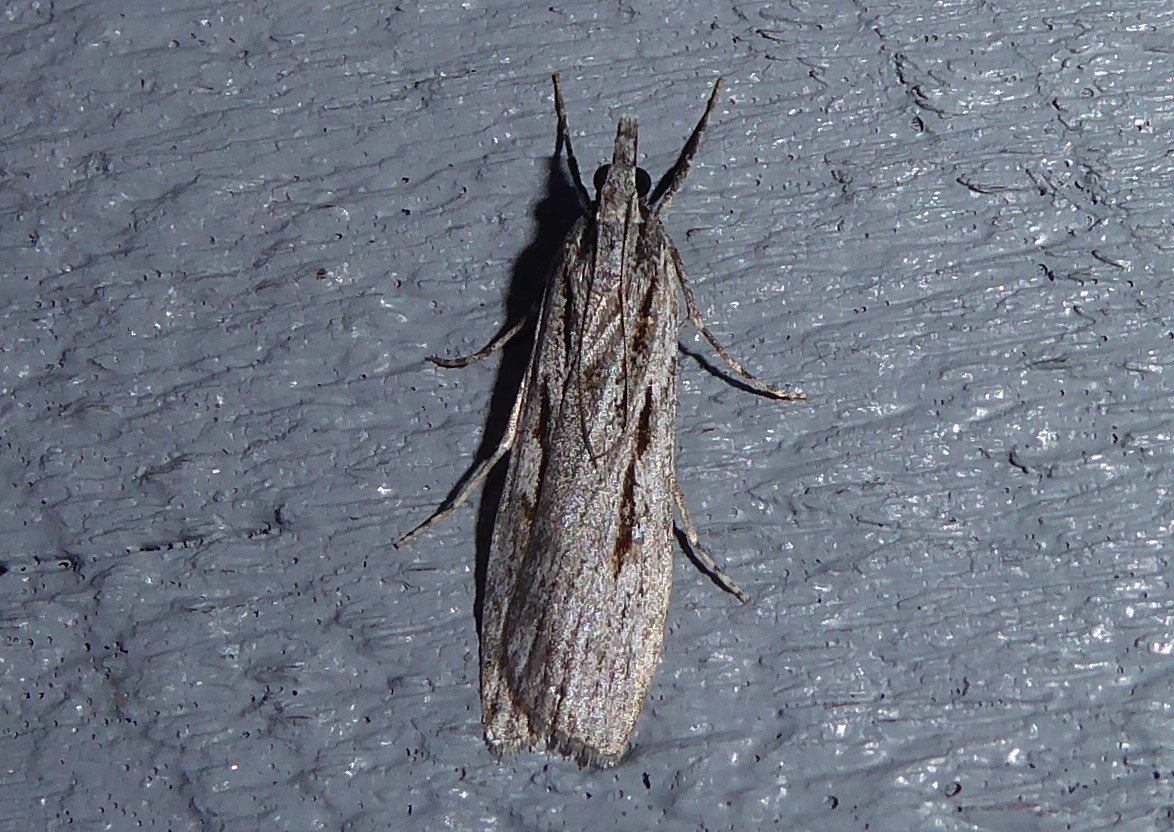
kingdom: Animalia
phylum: Arthropoda
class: Insecta
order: Lepidoptera
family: Crambidae
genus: Scoparia
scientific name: Scoparia indistinctalis
